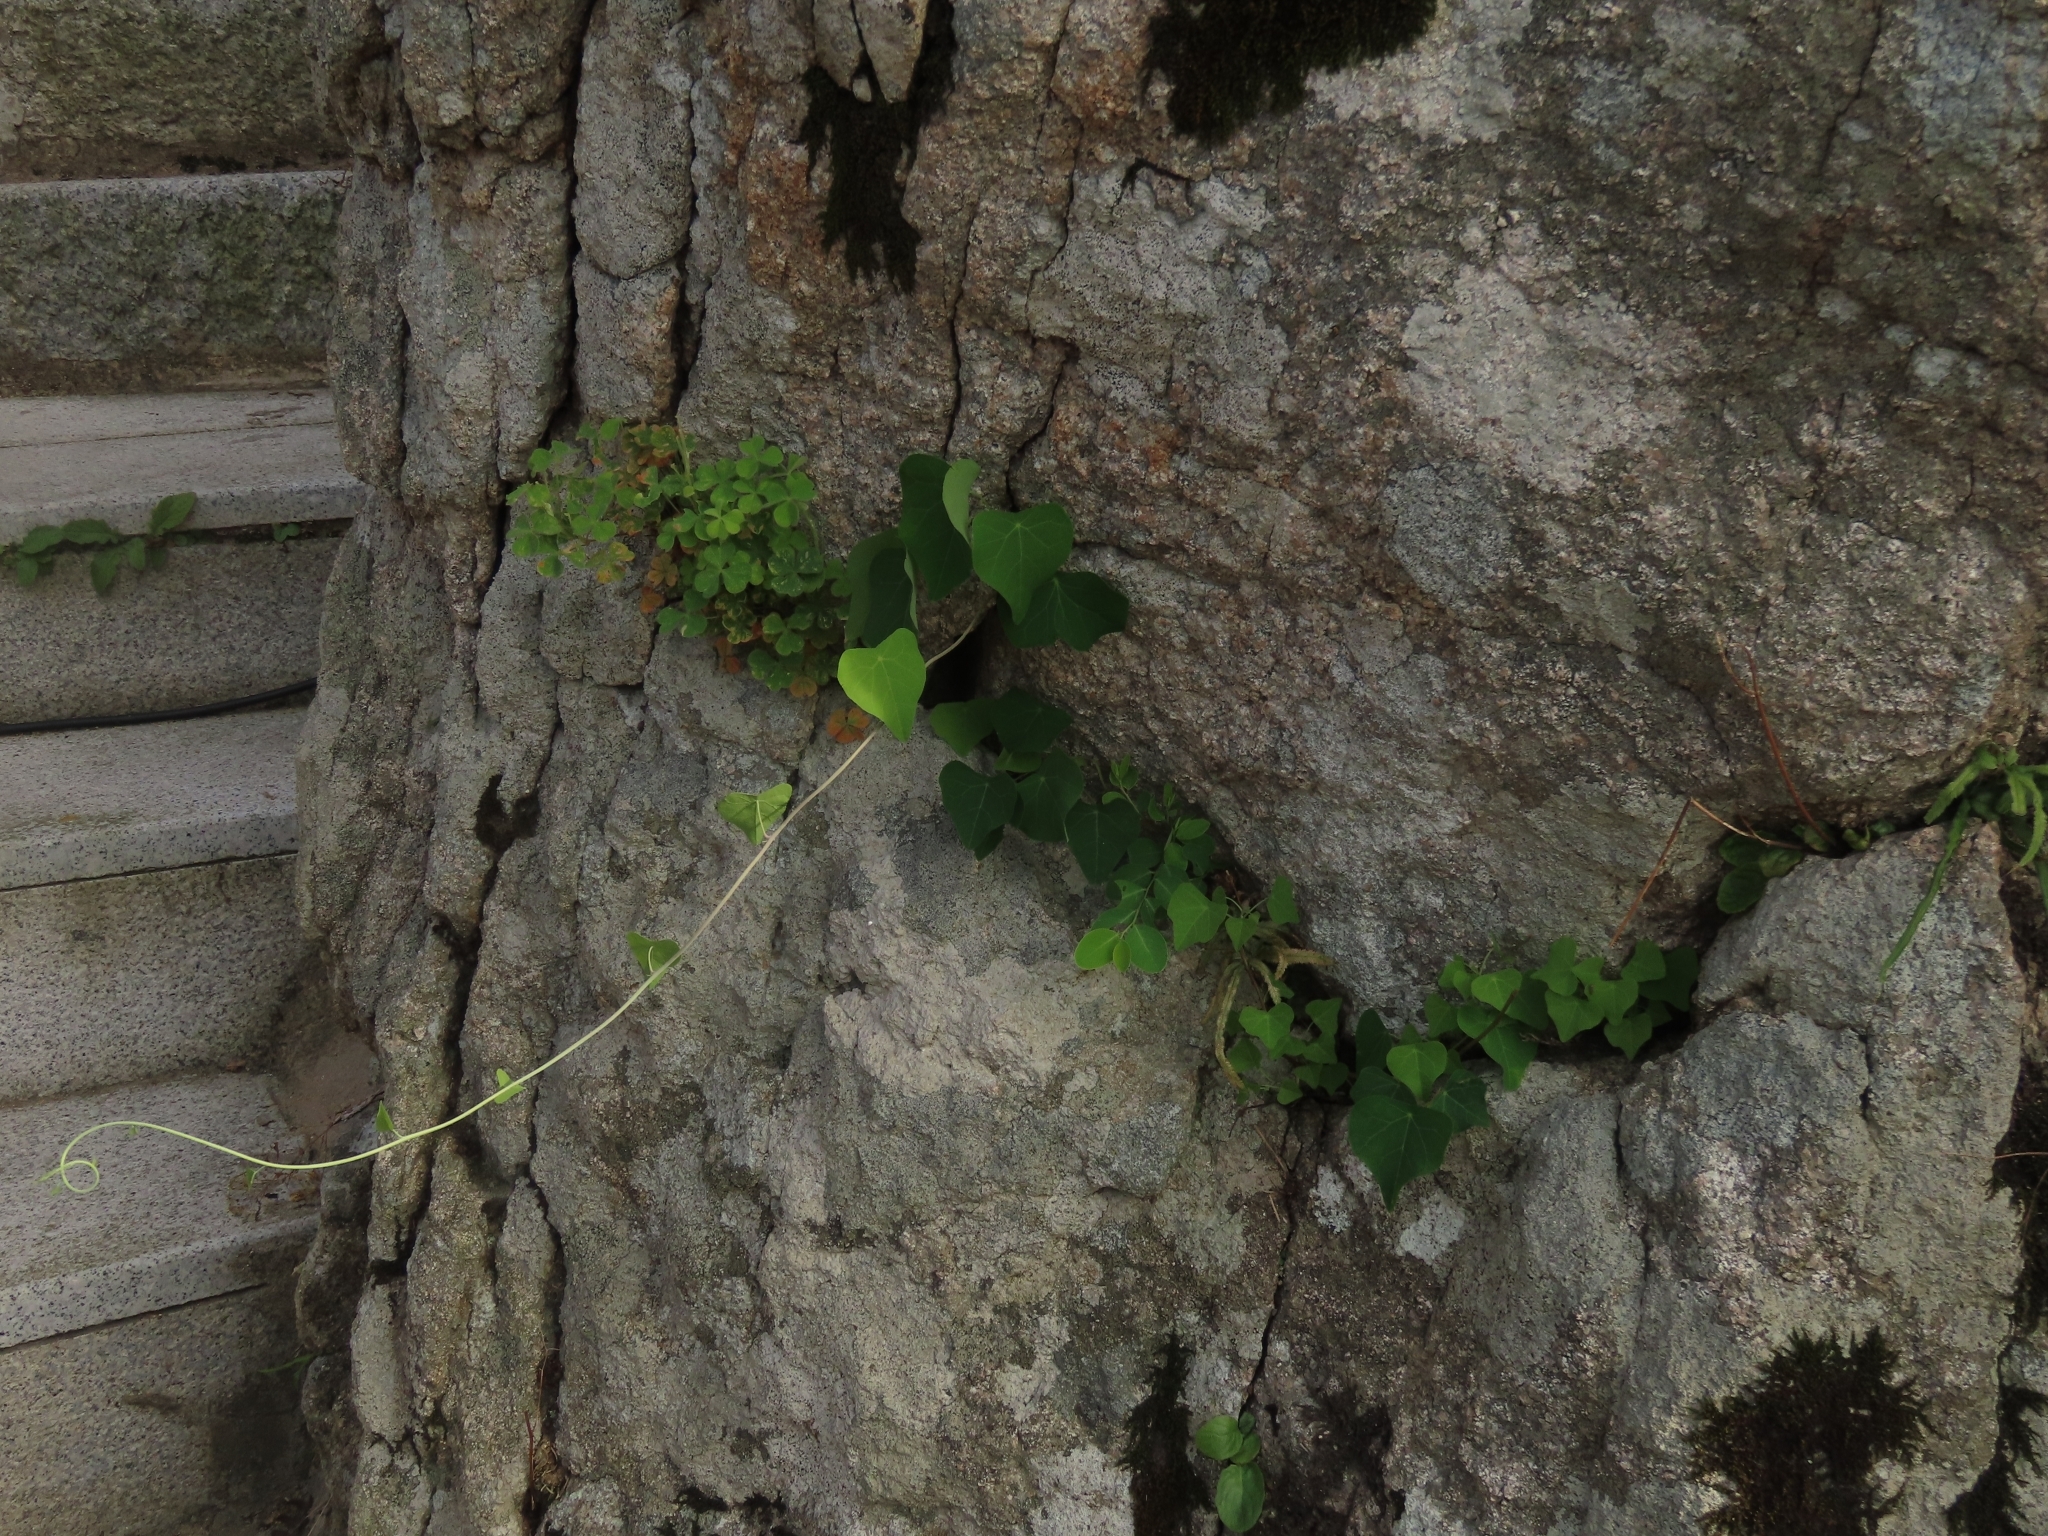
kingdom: Plantae
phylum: Tracheophyta
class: Magnoliopsida
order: Ranunculales
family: Menispermaceae
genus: Stephania
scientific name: Stephania tetrandra
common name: Stephania-root
